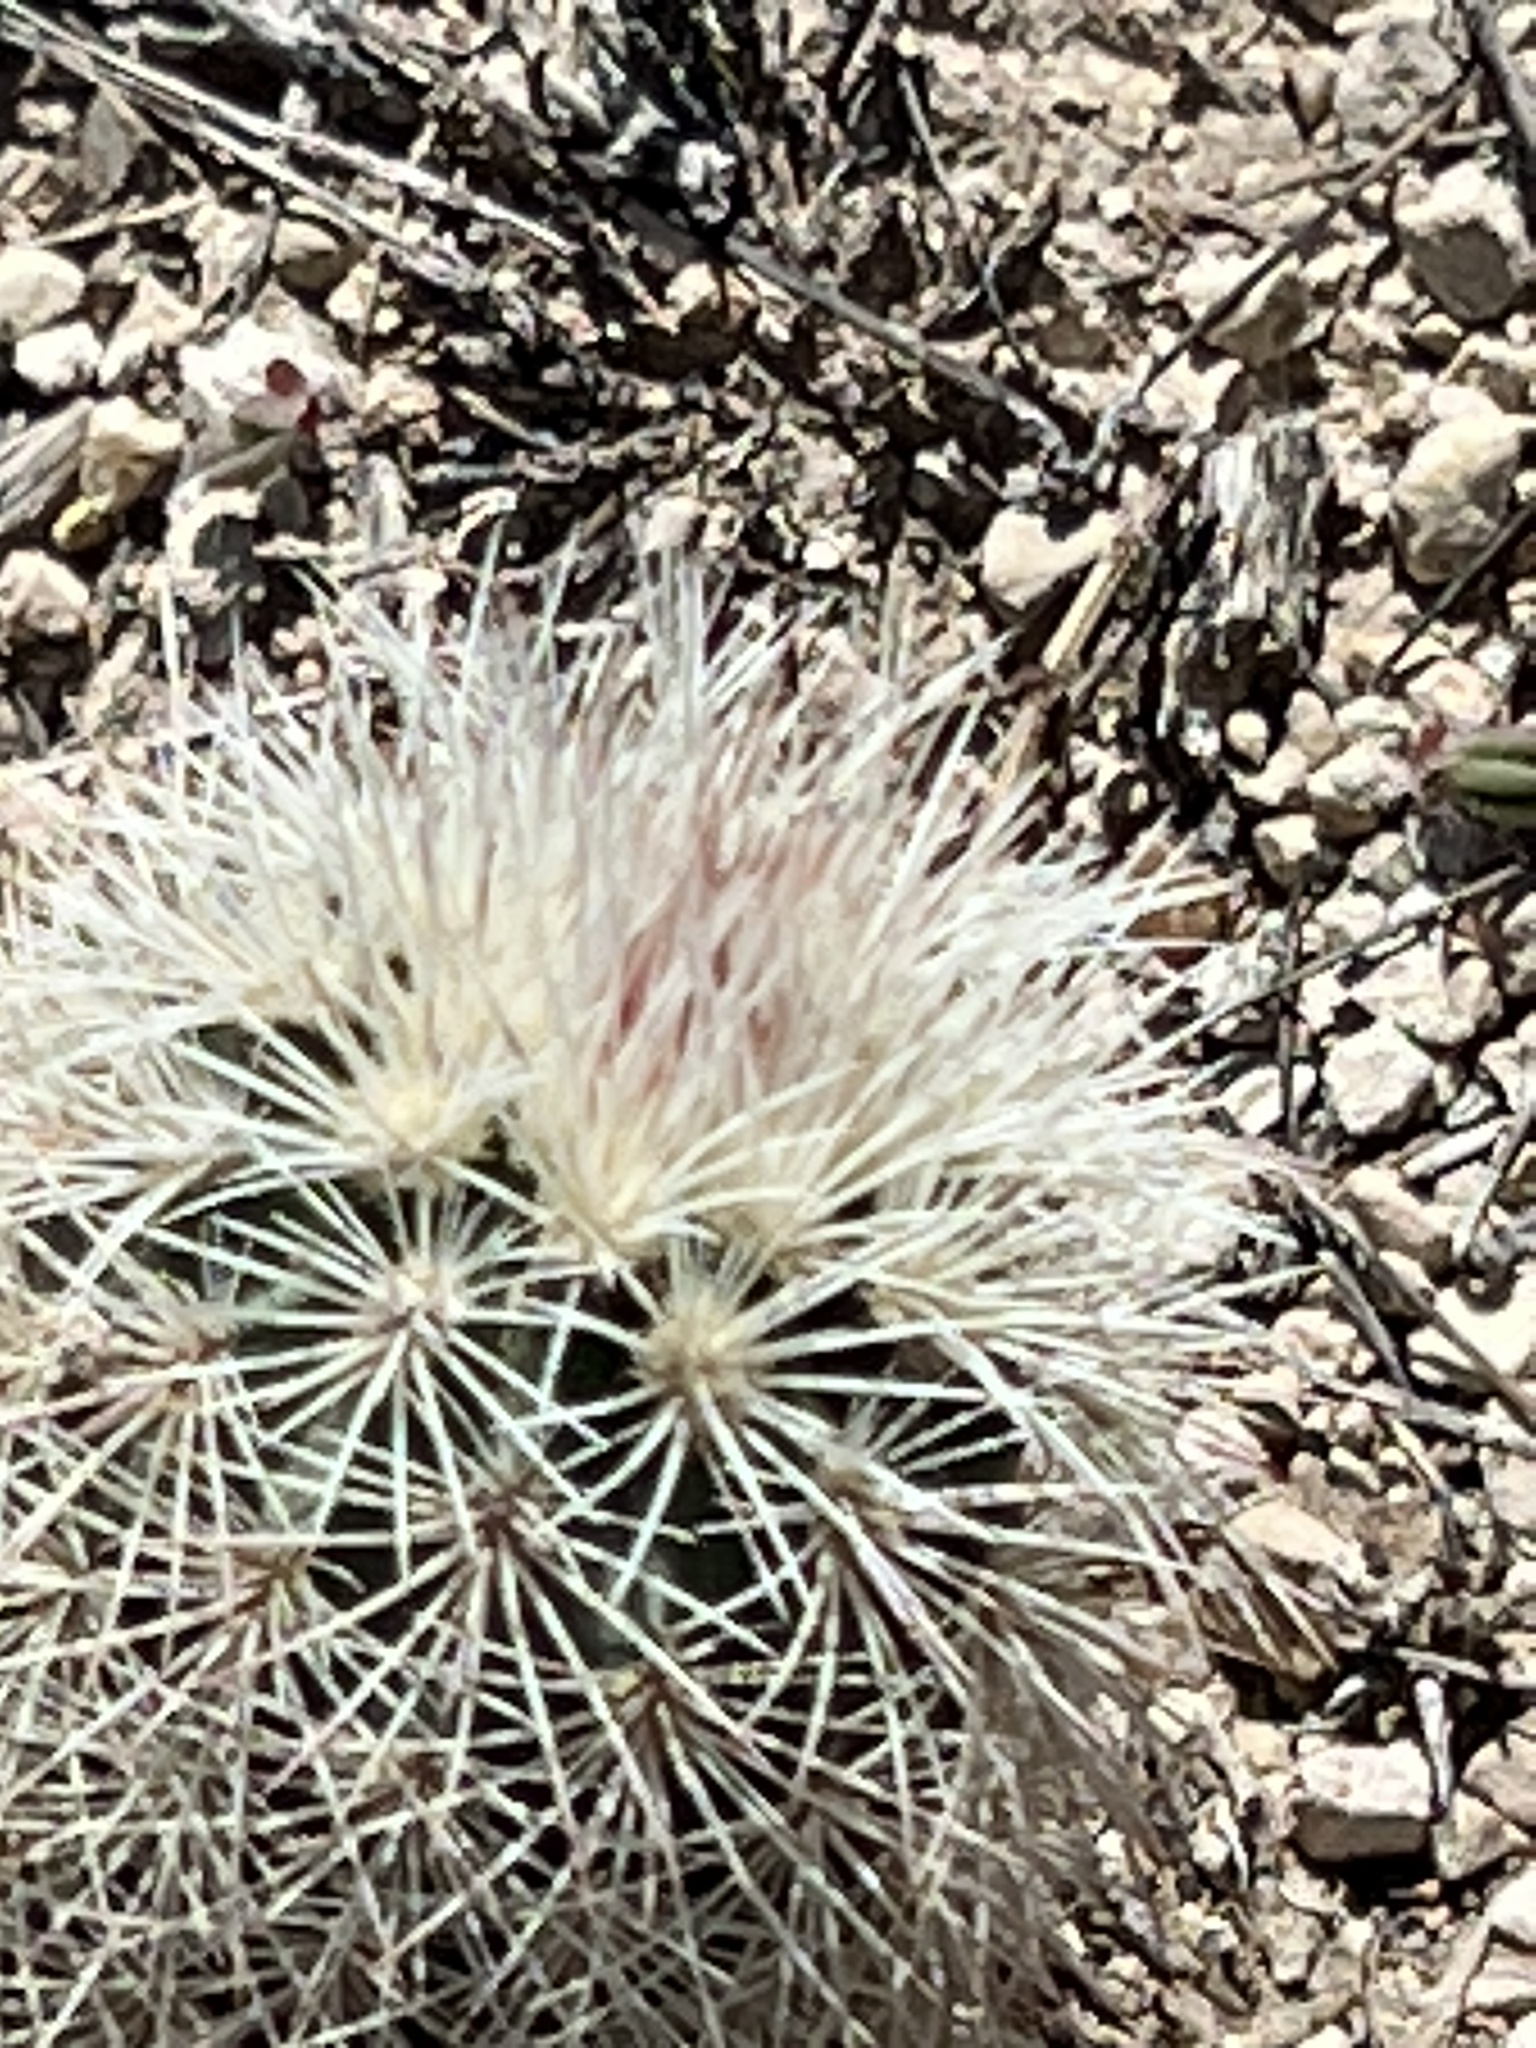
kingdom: Plantae
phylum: Tracheophyta
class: Magnoliopsida
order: Caryophyllales
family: Cactaceae
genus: Echinocereus
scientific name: Echinocereus dasyacanthus
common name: Spiny hedgehog cactus
